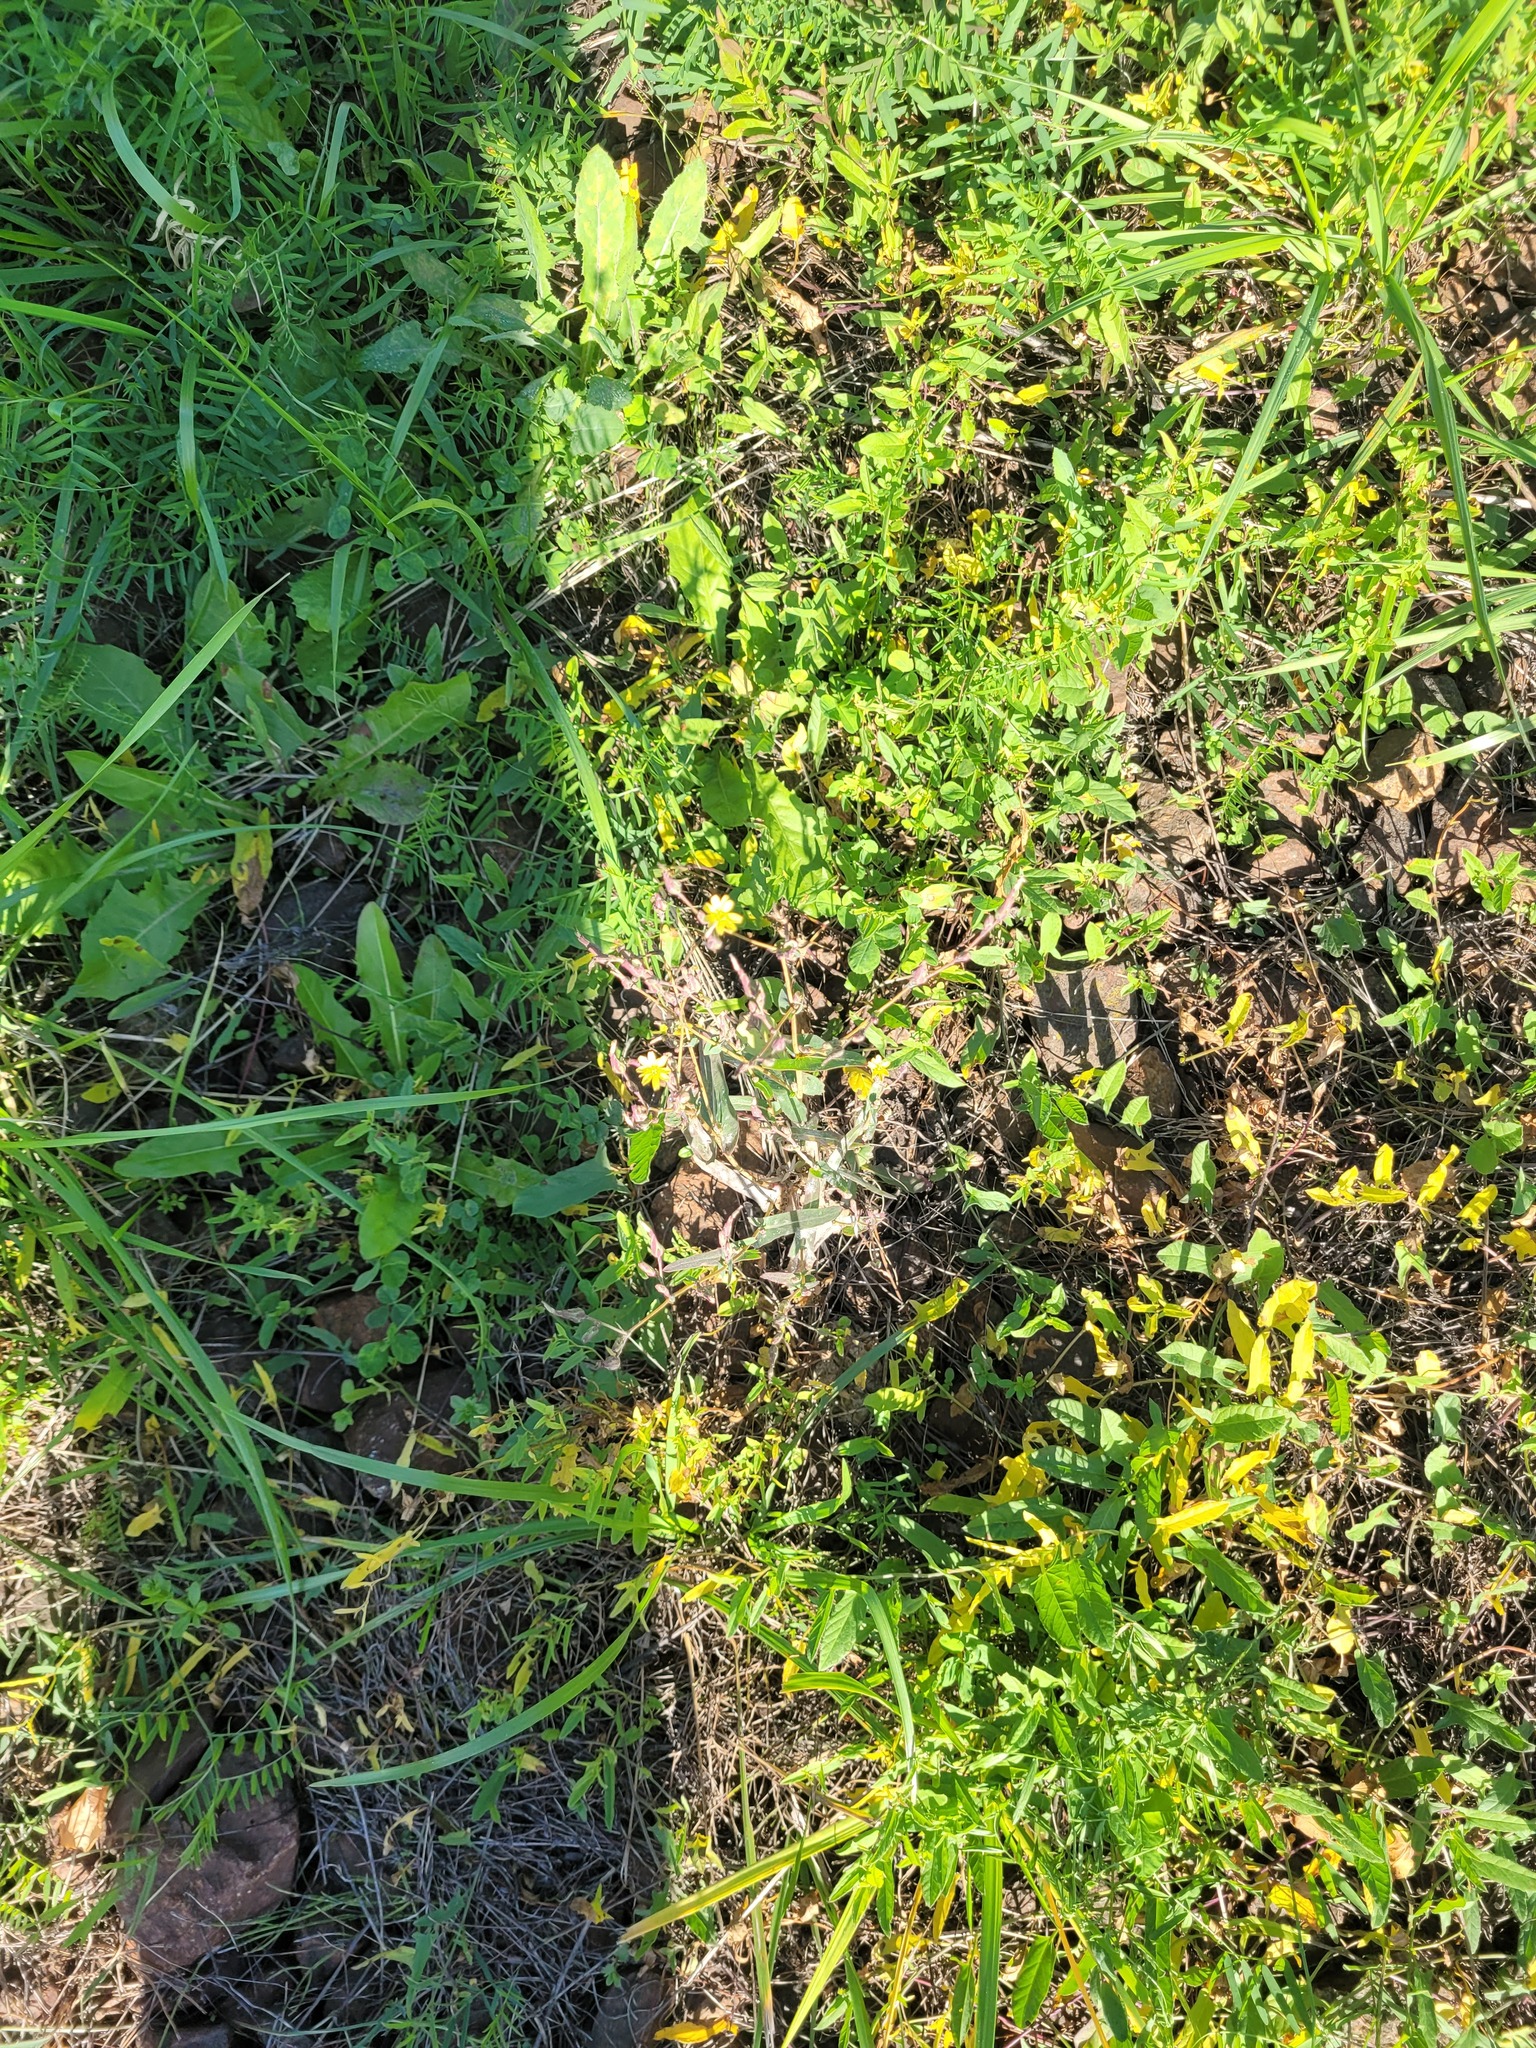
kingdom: Plantae
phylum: Tracheophyta
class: Magnoliopsida
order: Asterales
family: Asteraceae
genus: Lactuca
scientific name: Lactuca serriola
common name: Prickly lettuce
